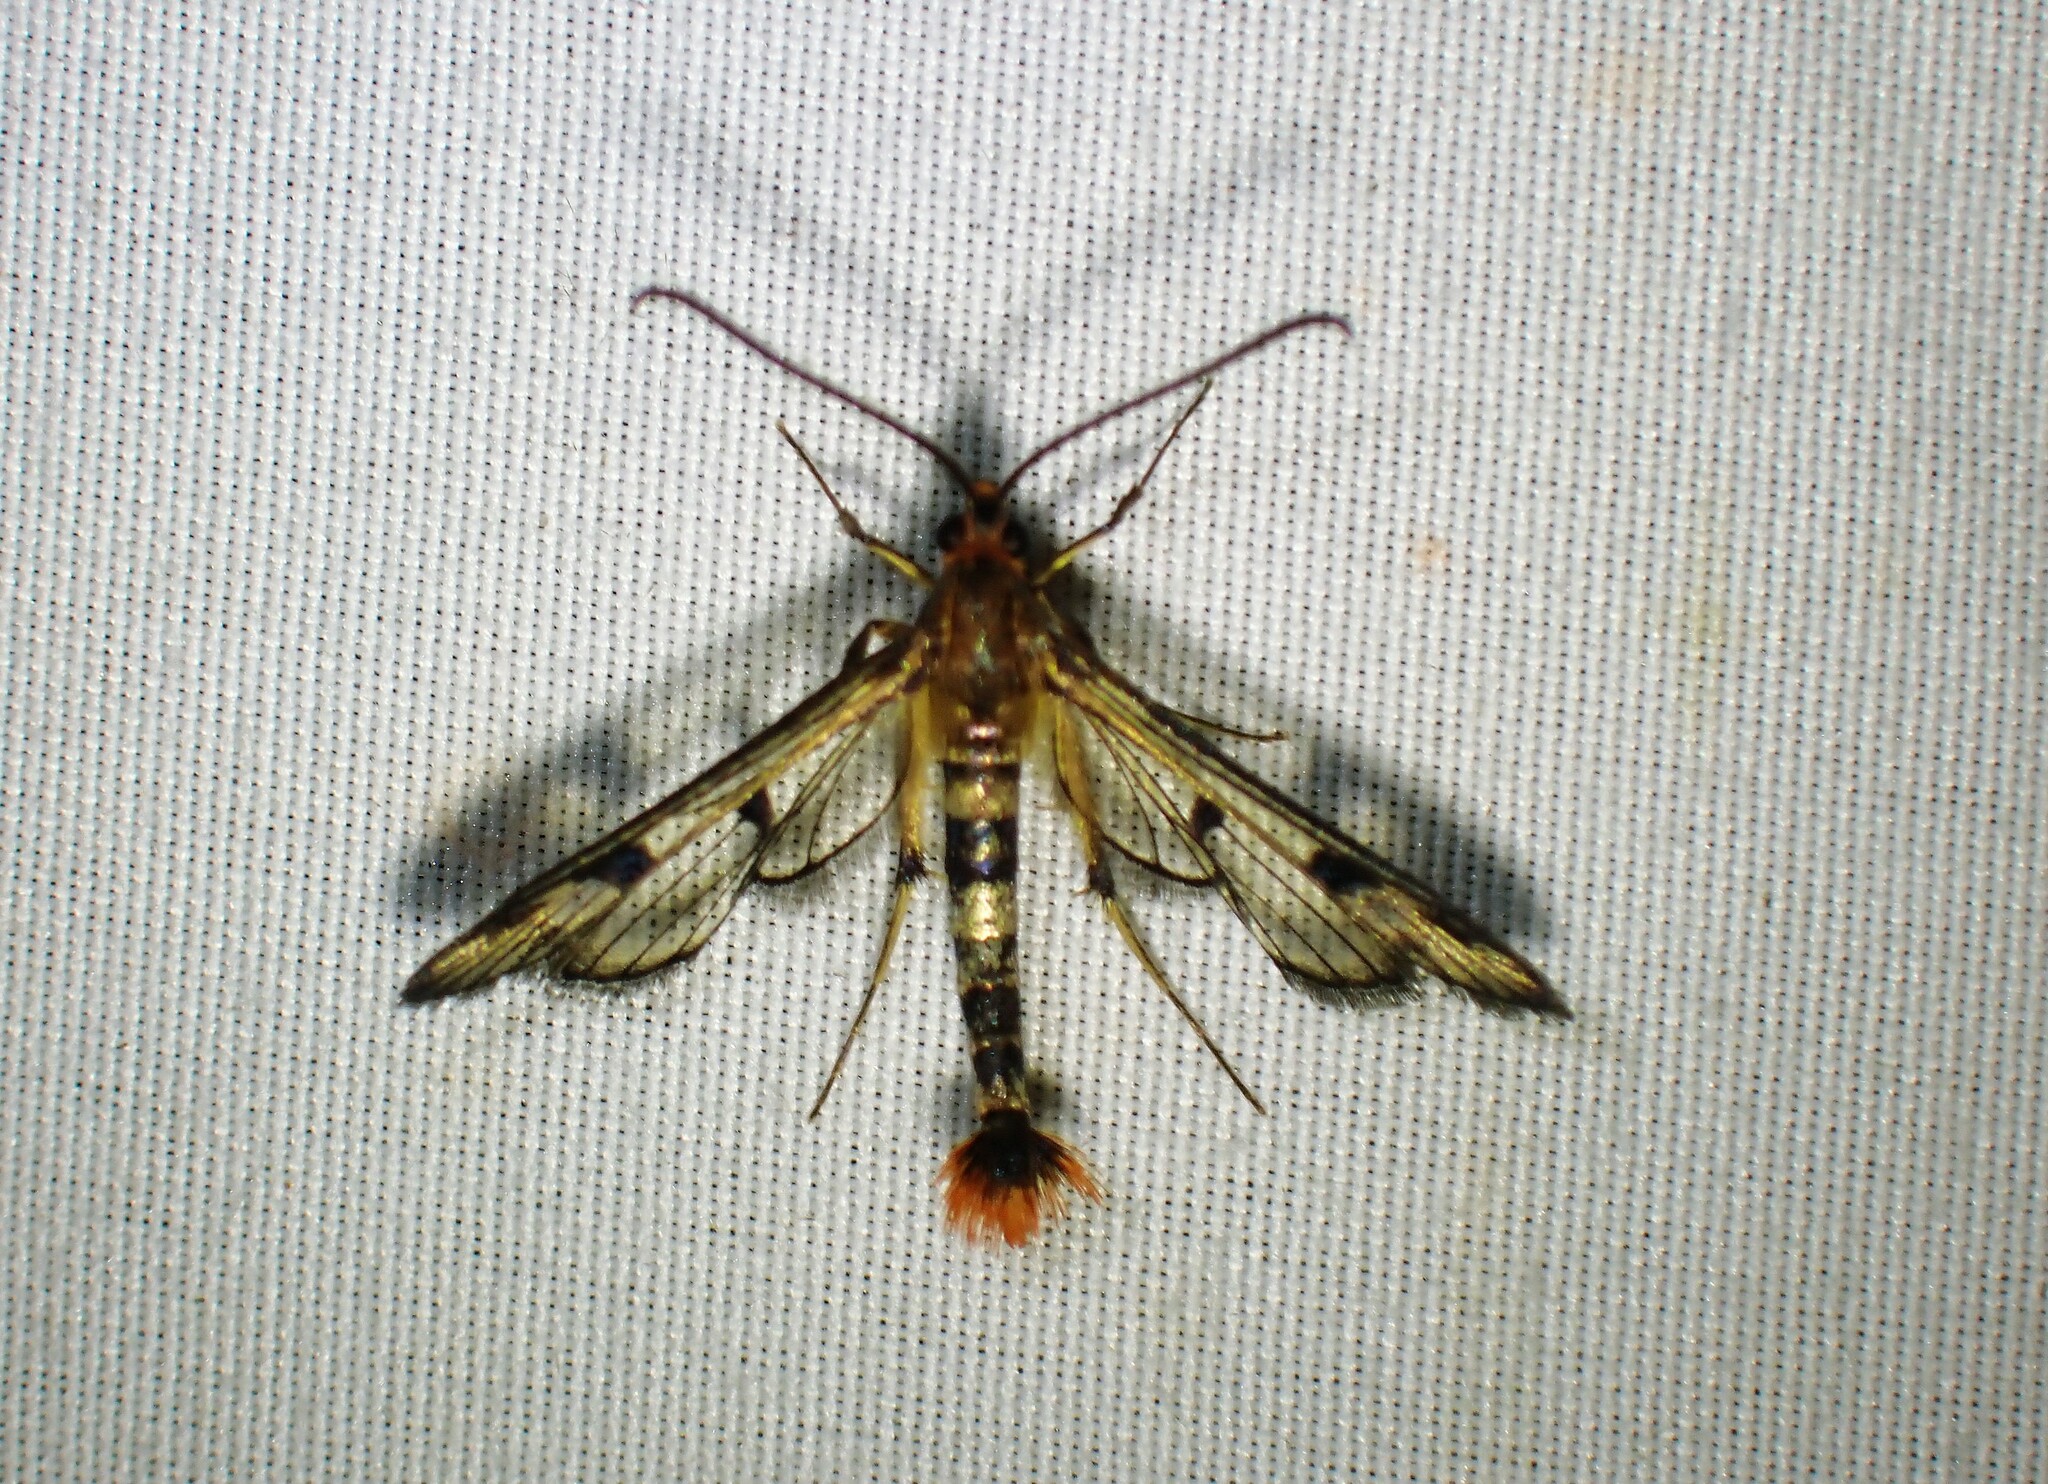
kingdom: Animalia
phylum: Arthropoda
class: Insecta
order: Lepidoptera
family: Sesiidae
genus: Synanthedon
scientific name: Synanthedon acerni
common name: Maple callus borer moth
